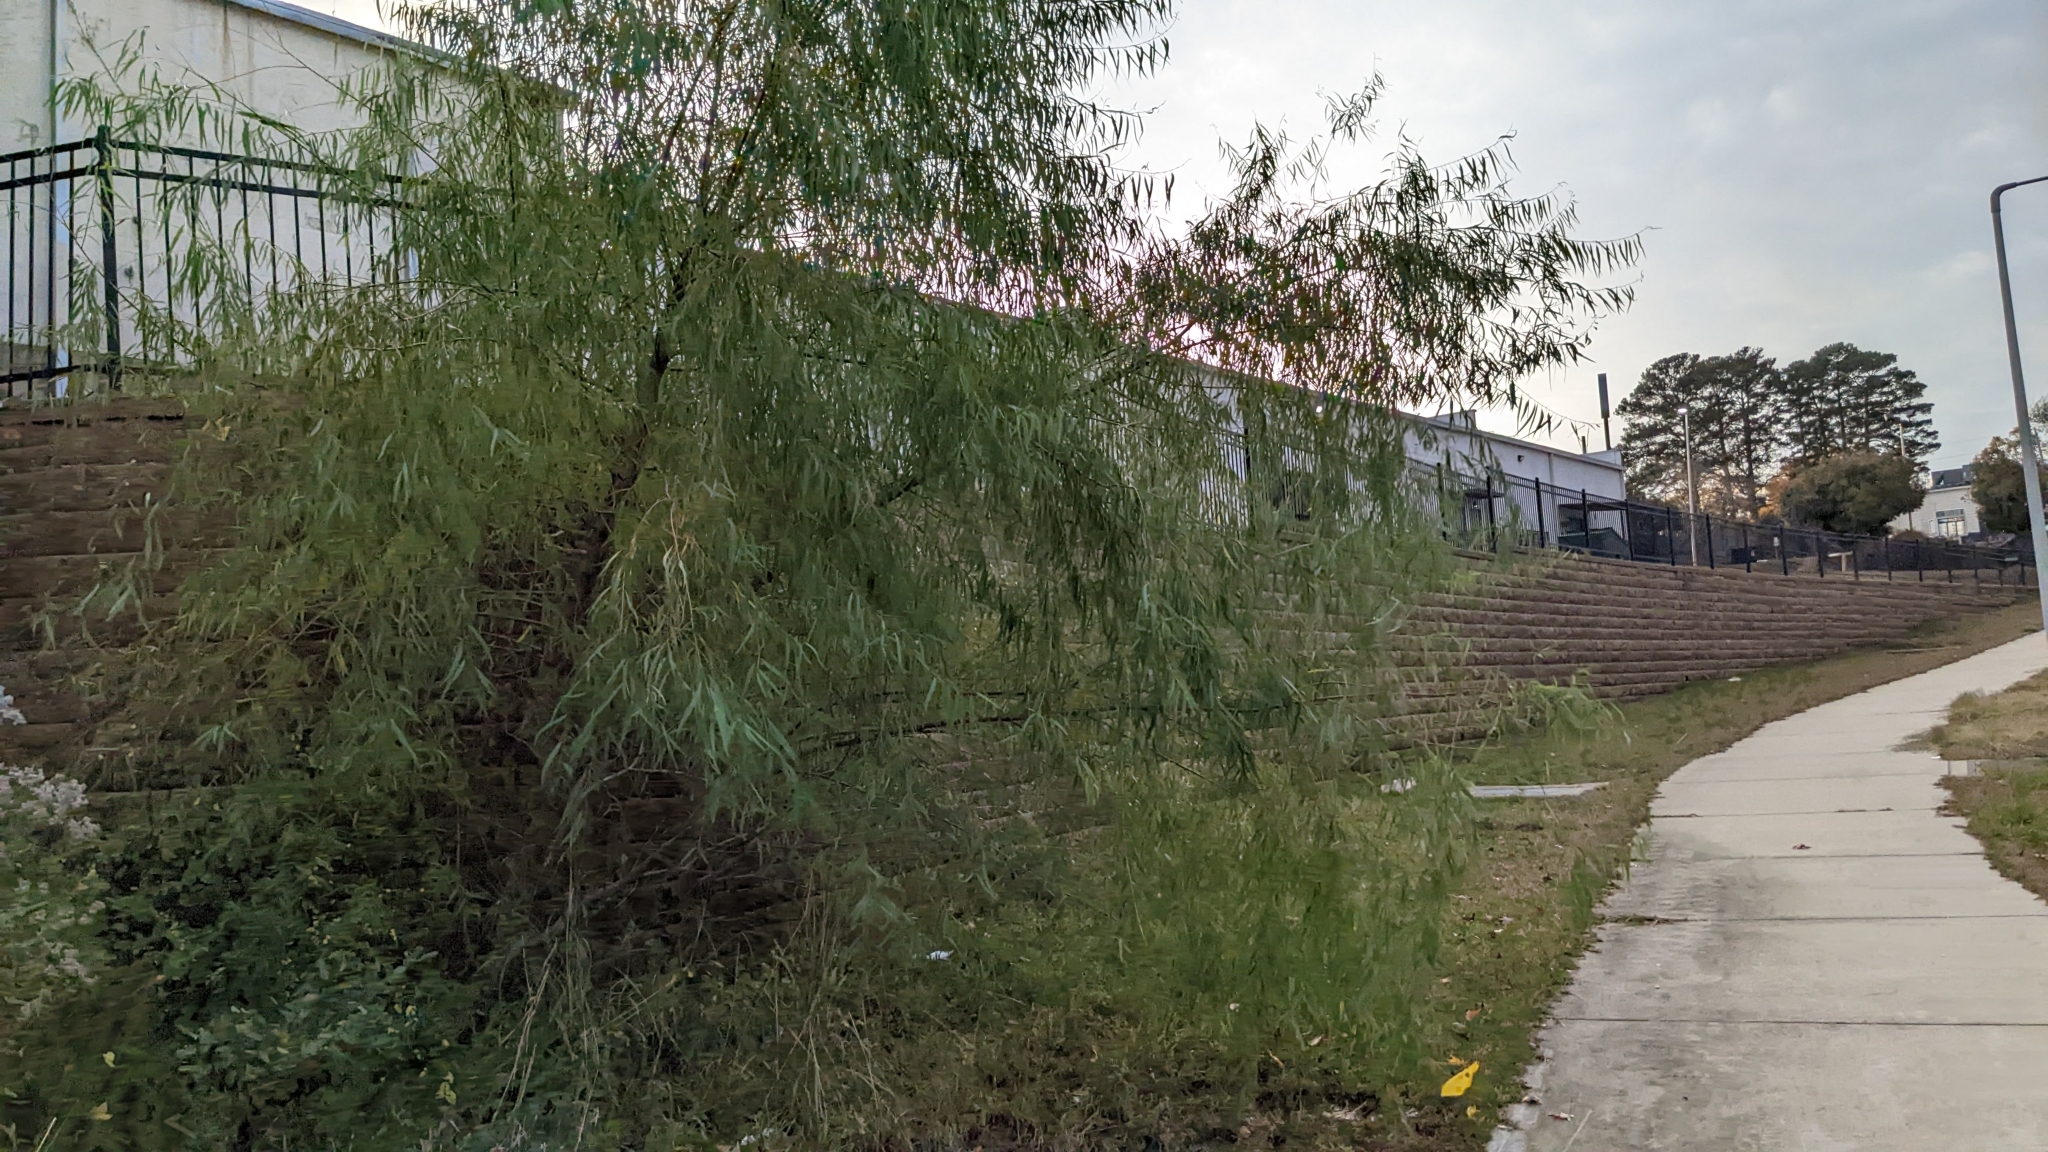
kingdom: Plantae
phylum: Tracheophyta
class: Magnoliopsida
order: Malpighiales
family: Salicaceae
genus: Salix
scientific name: Salix nigra
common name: Black willow
